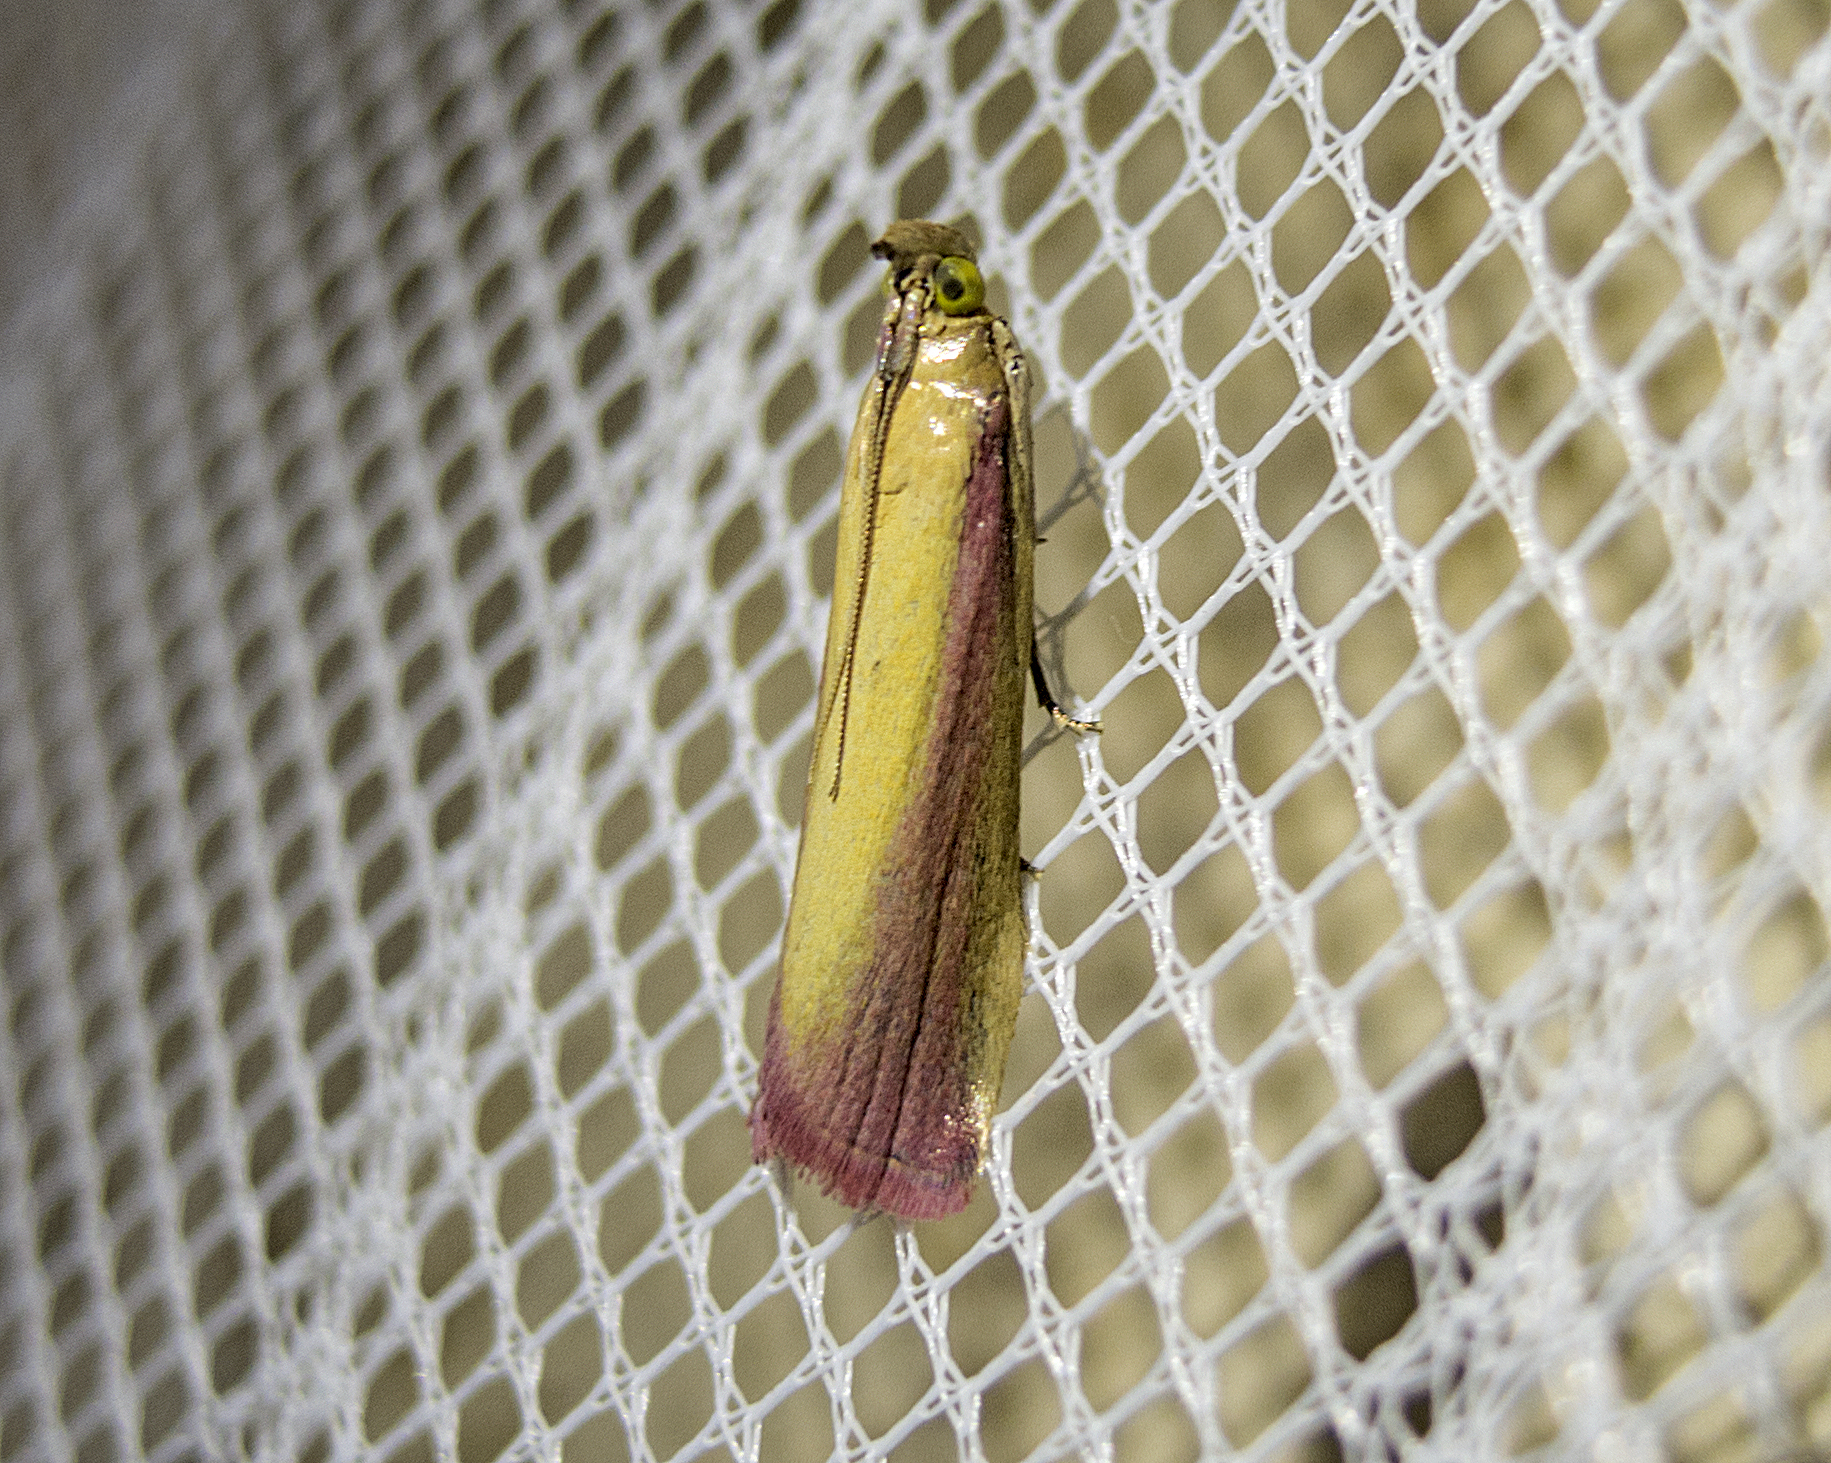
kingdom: Animalia
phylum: Arthropoda
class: Insecta
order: Lepidoptera
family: Pyralidae
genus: Oncocera
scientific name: Oncocera semirubella
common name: Rosy-striped knot-horn
